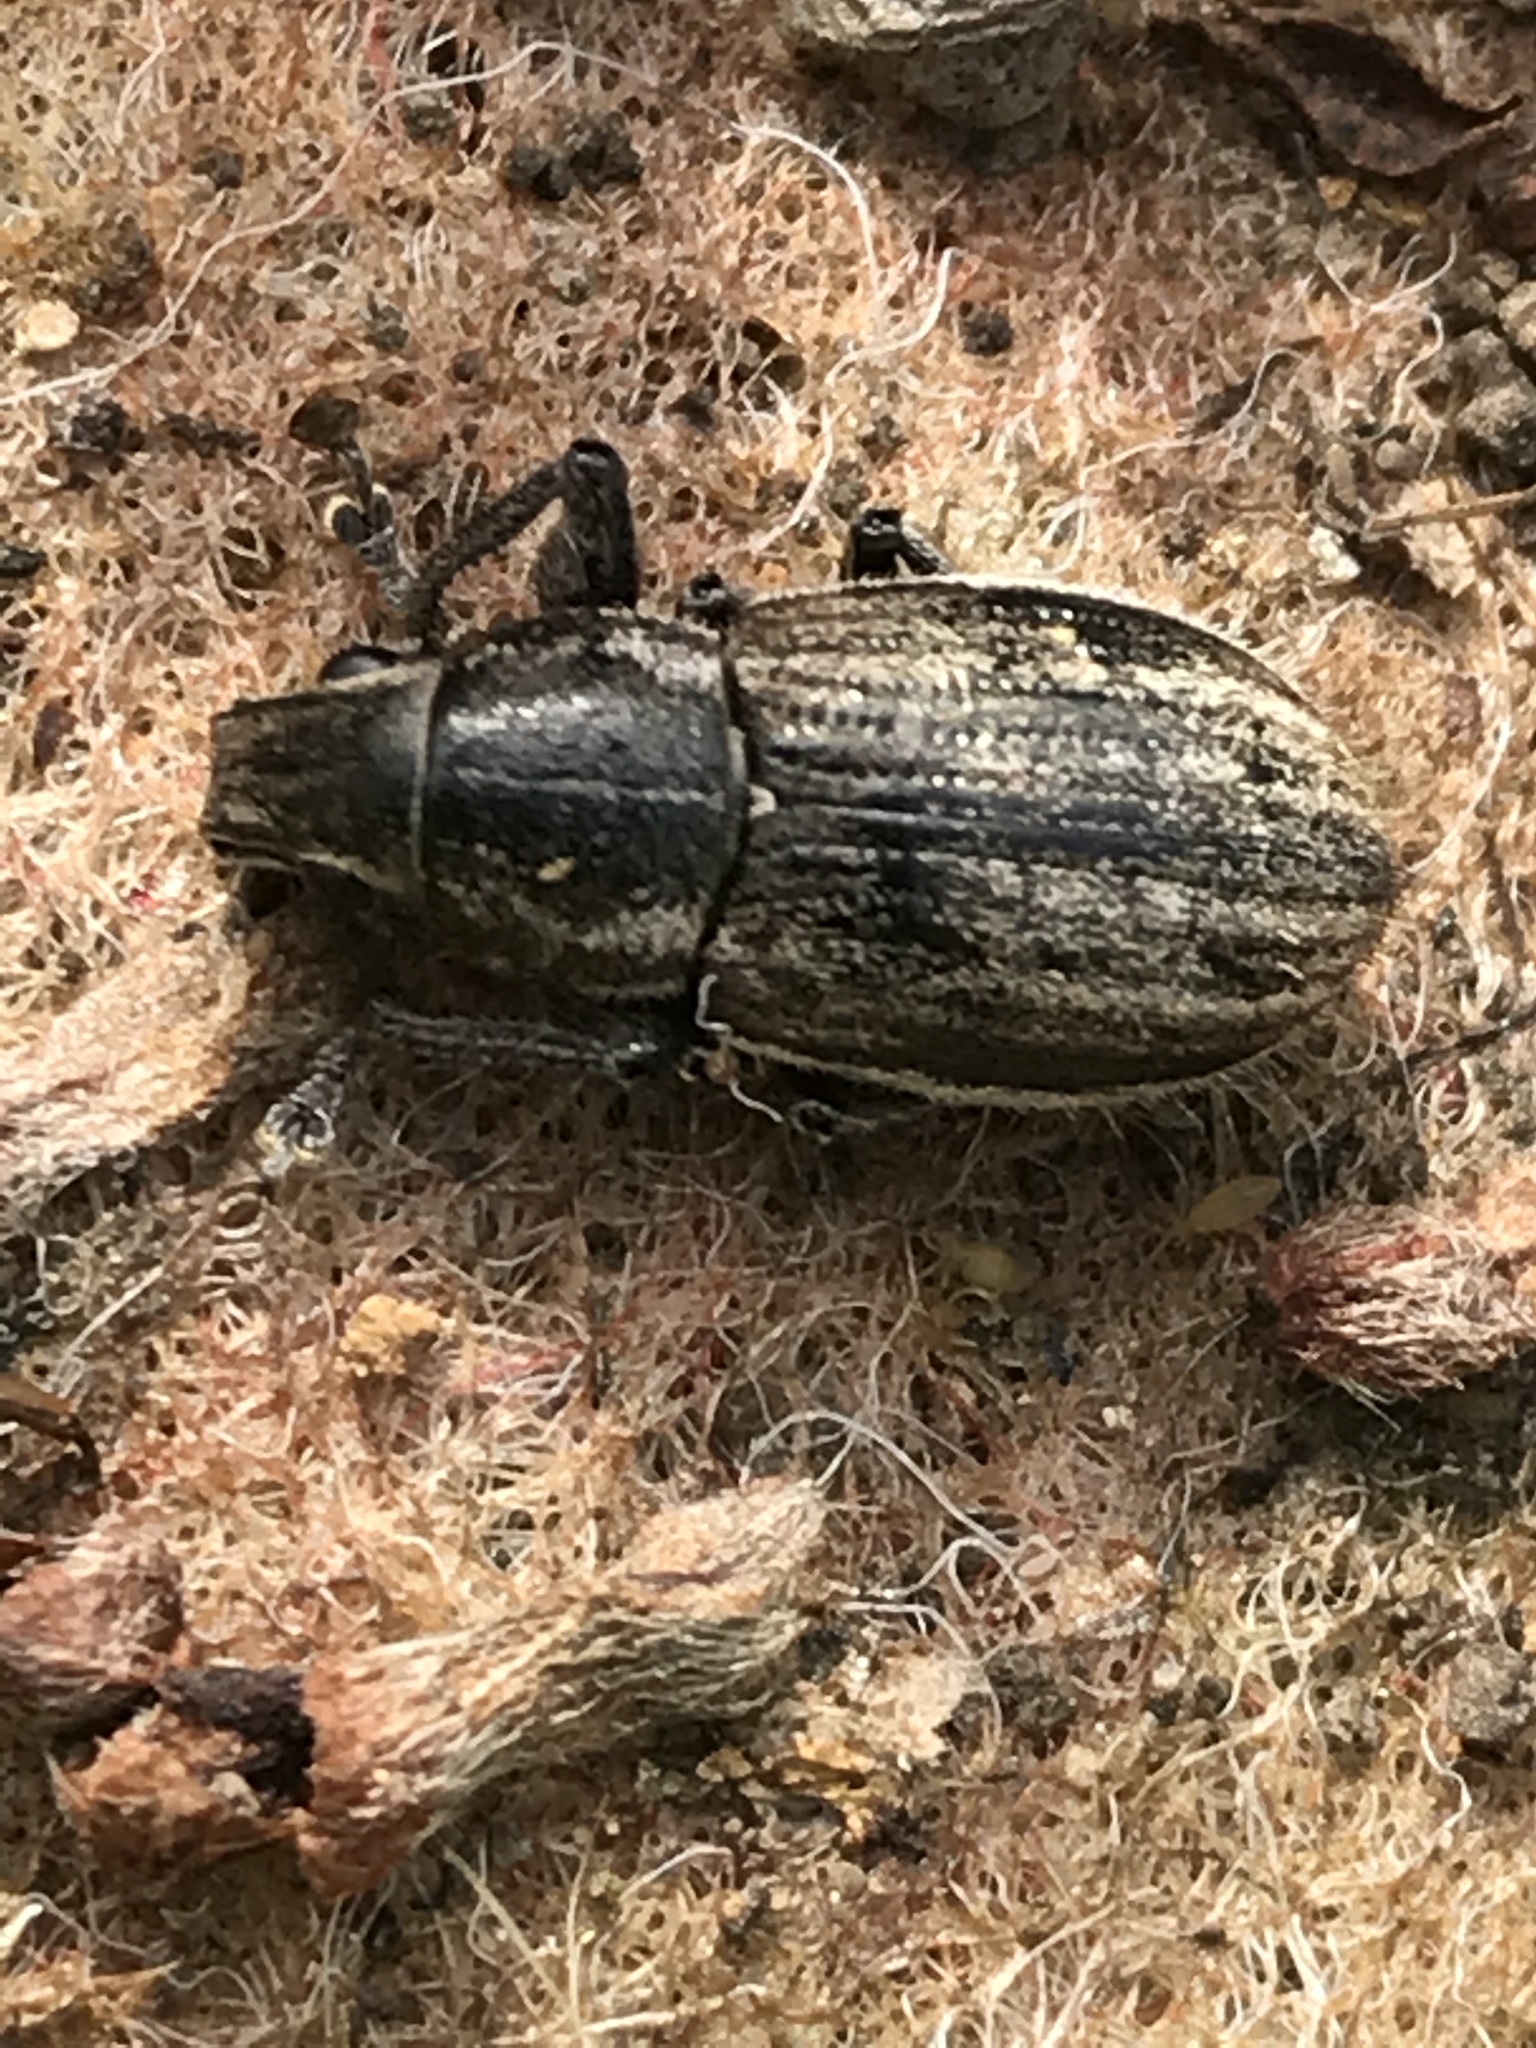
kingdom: Animalia
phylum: Arthropoda
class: Insecta
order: Coleoptera
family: Curculionidae
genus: Naupactus
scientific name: Naupactus leucoloma
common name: Whitefringed beetle
